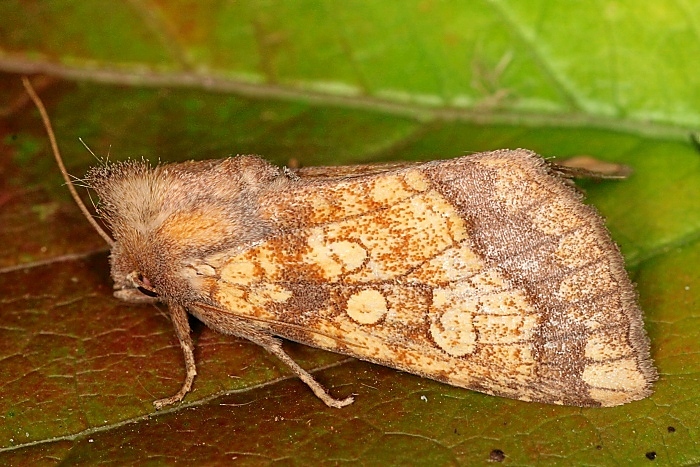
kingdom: Animalia
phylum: Arthropoda
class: Insecta
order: Lepidoptera
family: Noctuidae
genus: Gortyna
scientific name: Gortyna flavago
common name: Frosted orange
